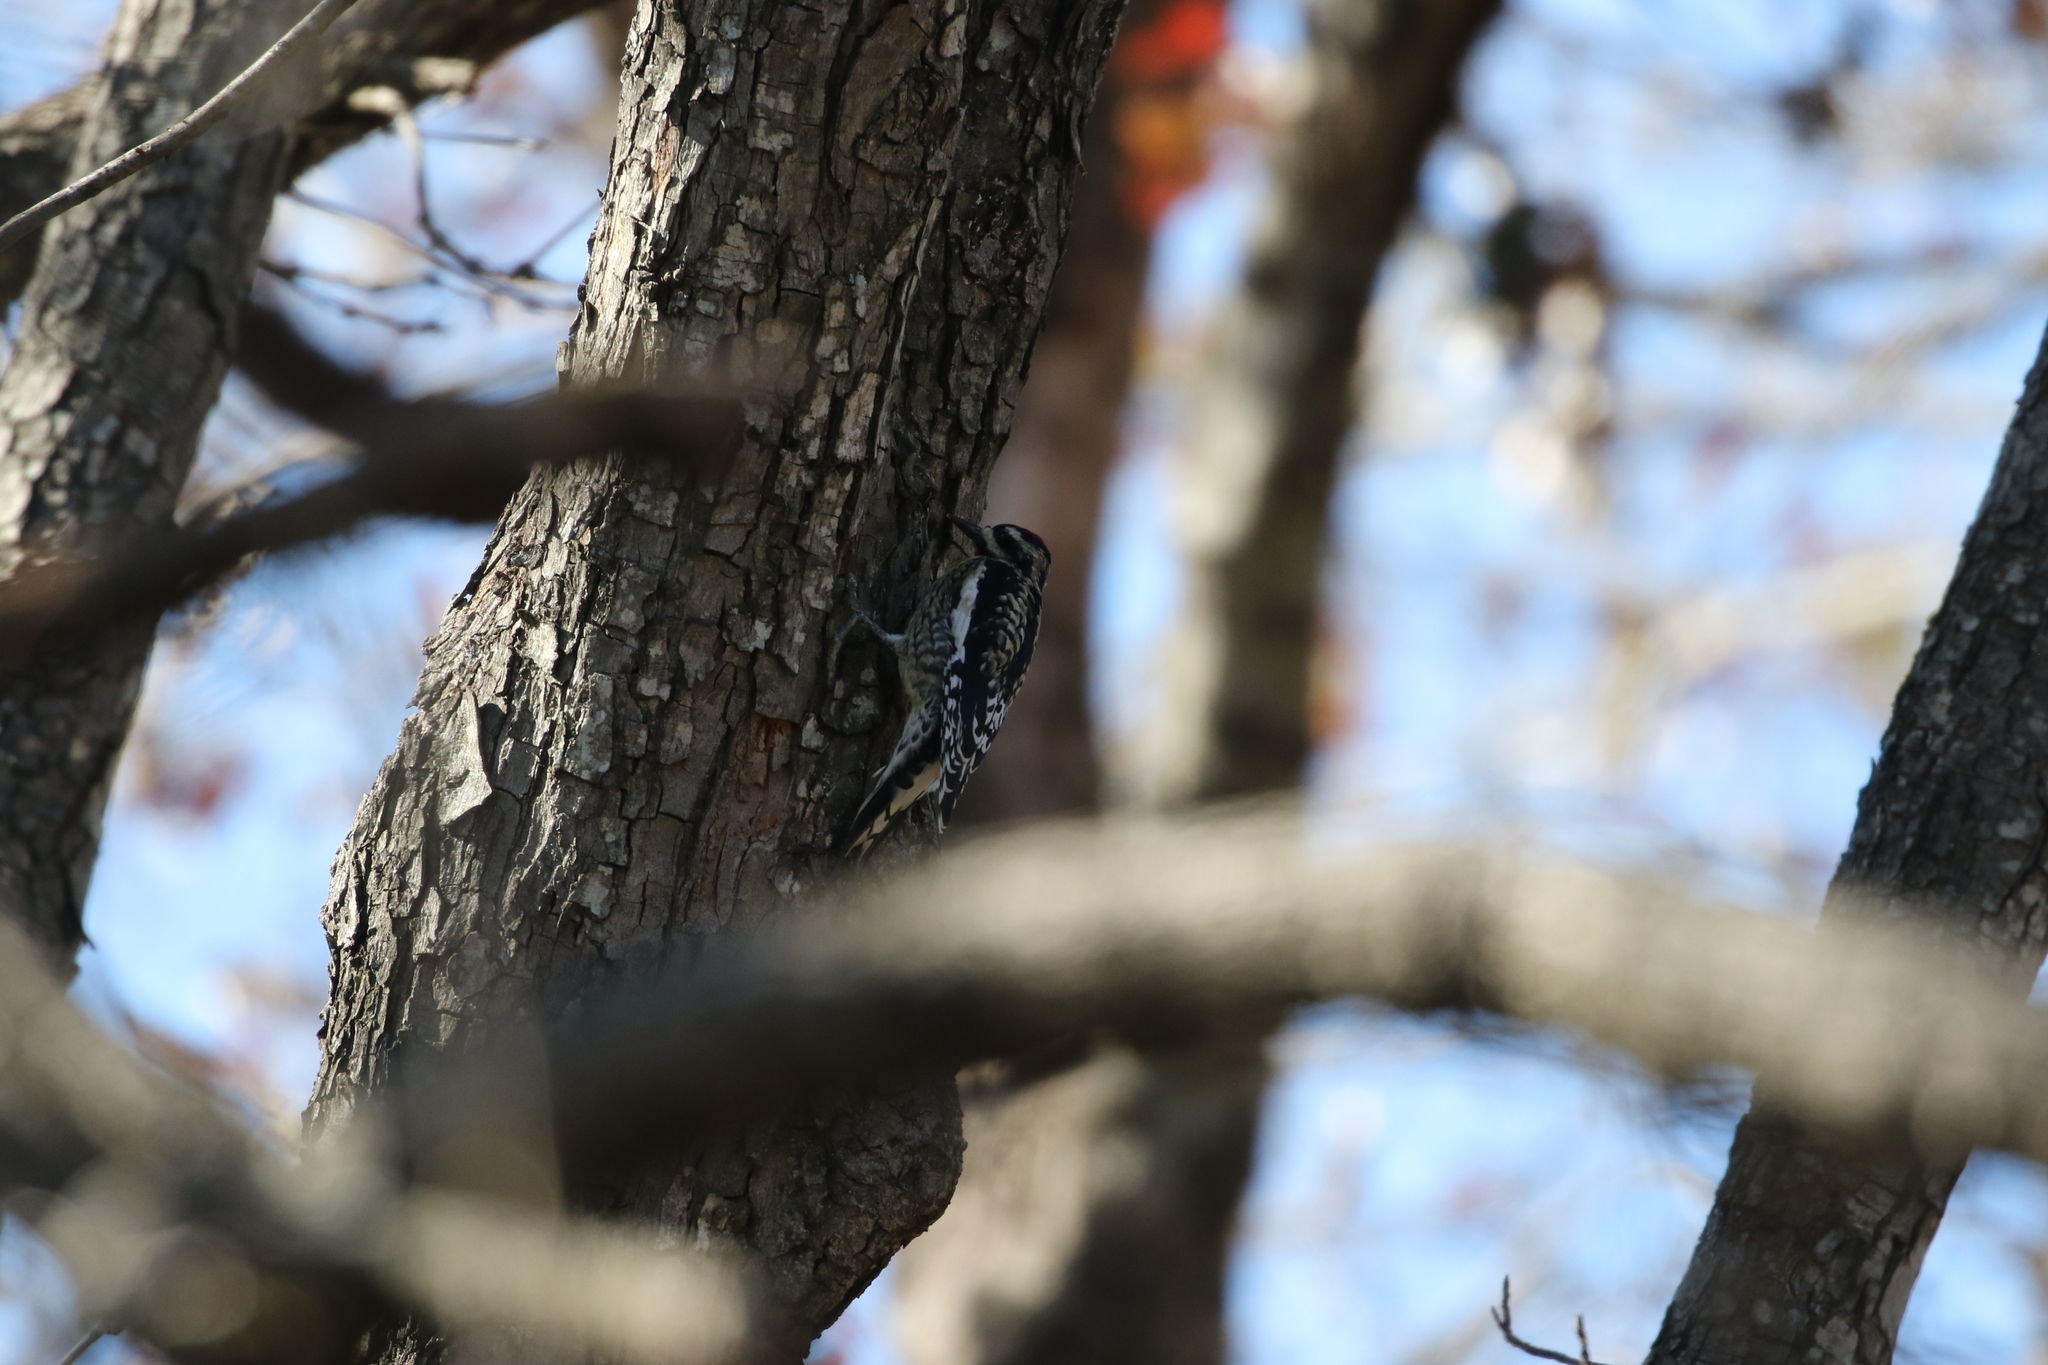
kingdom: Animalia
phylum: Chordata
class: Aves
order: Piciformes
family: Picidae
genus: Sphyrapicus
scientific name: Sphyrapicus varius
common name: Yellow-bellied sapsucker
